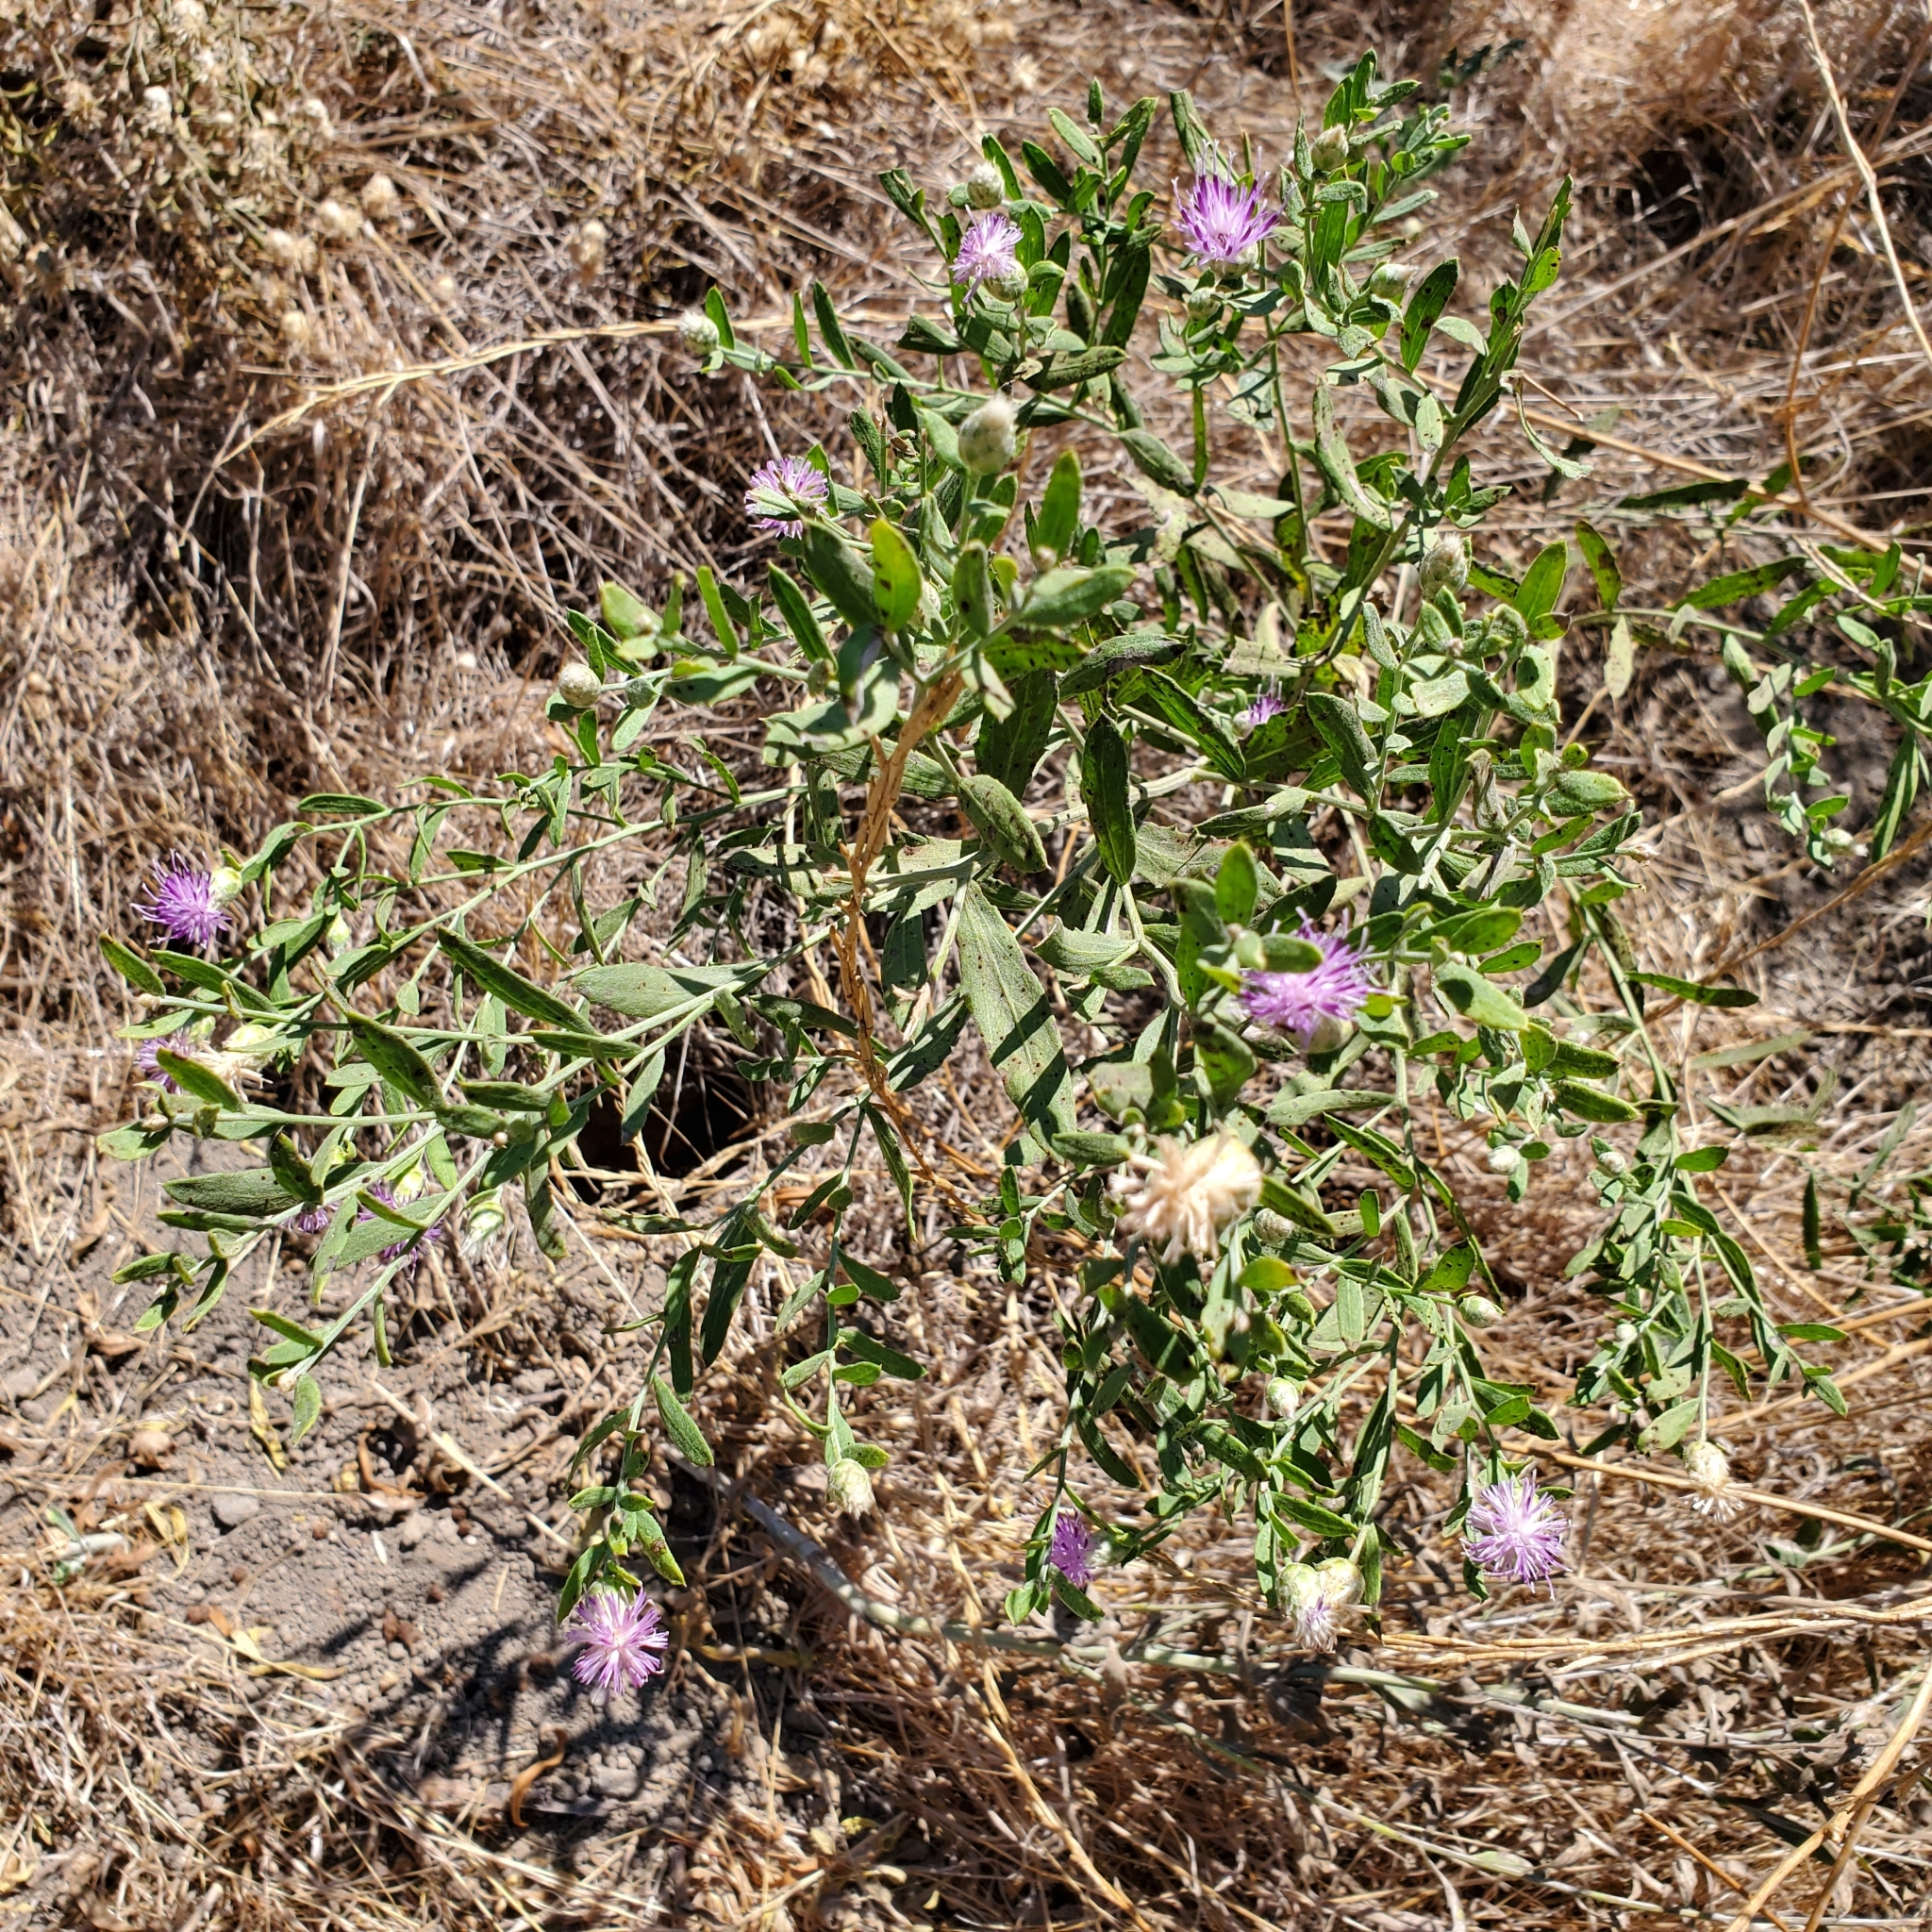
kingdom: Plantae
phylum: Tracheophyta
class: Magnoliopsida
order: Asterales
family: Asteraceae
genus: Leuzea
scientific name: Leuzea repens
